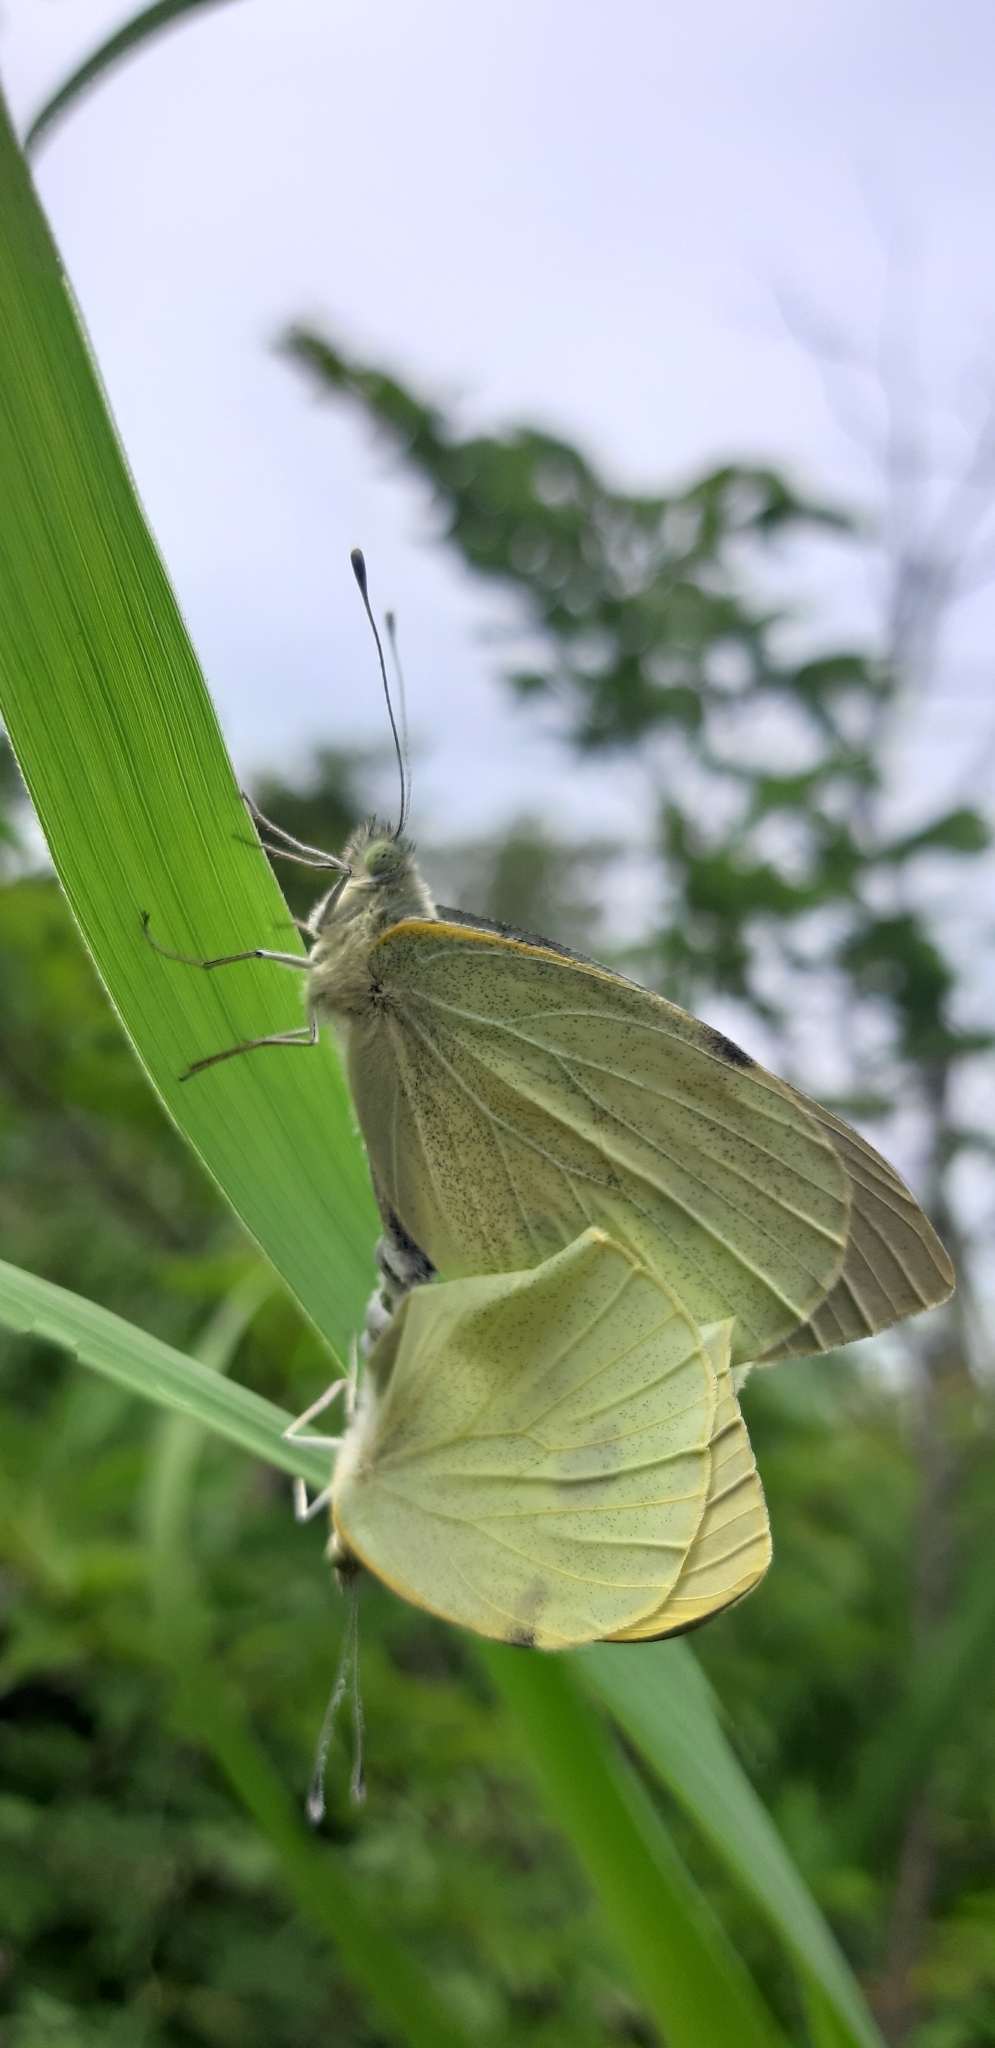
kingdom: Animalia
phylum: Arthropoda
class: Insecta
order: Lepidoptera
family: Pieridae
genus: Pieris
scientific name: Pieris brassicae
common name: Large white
